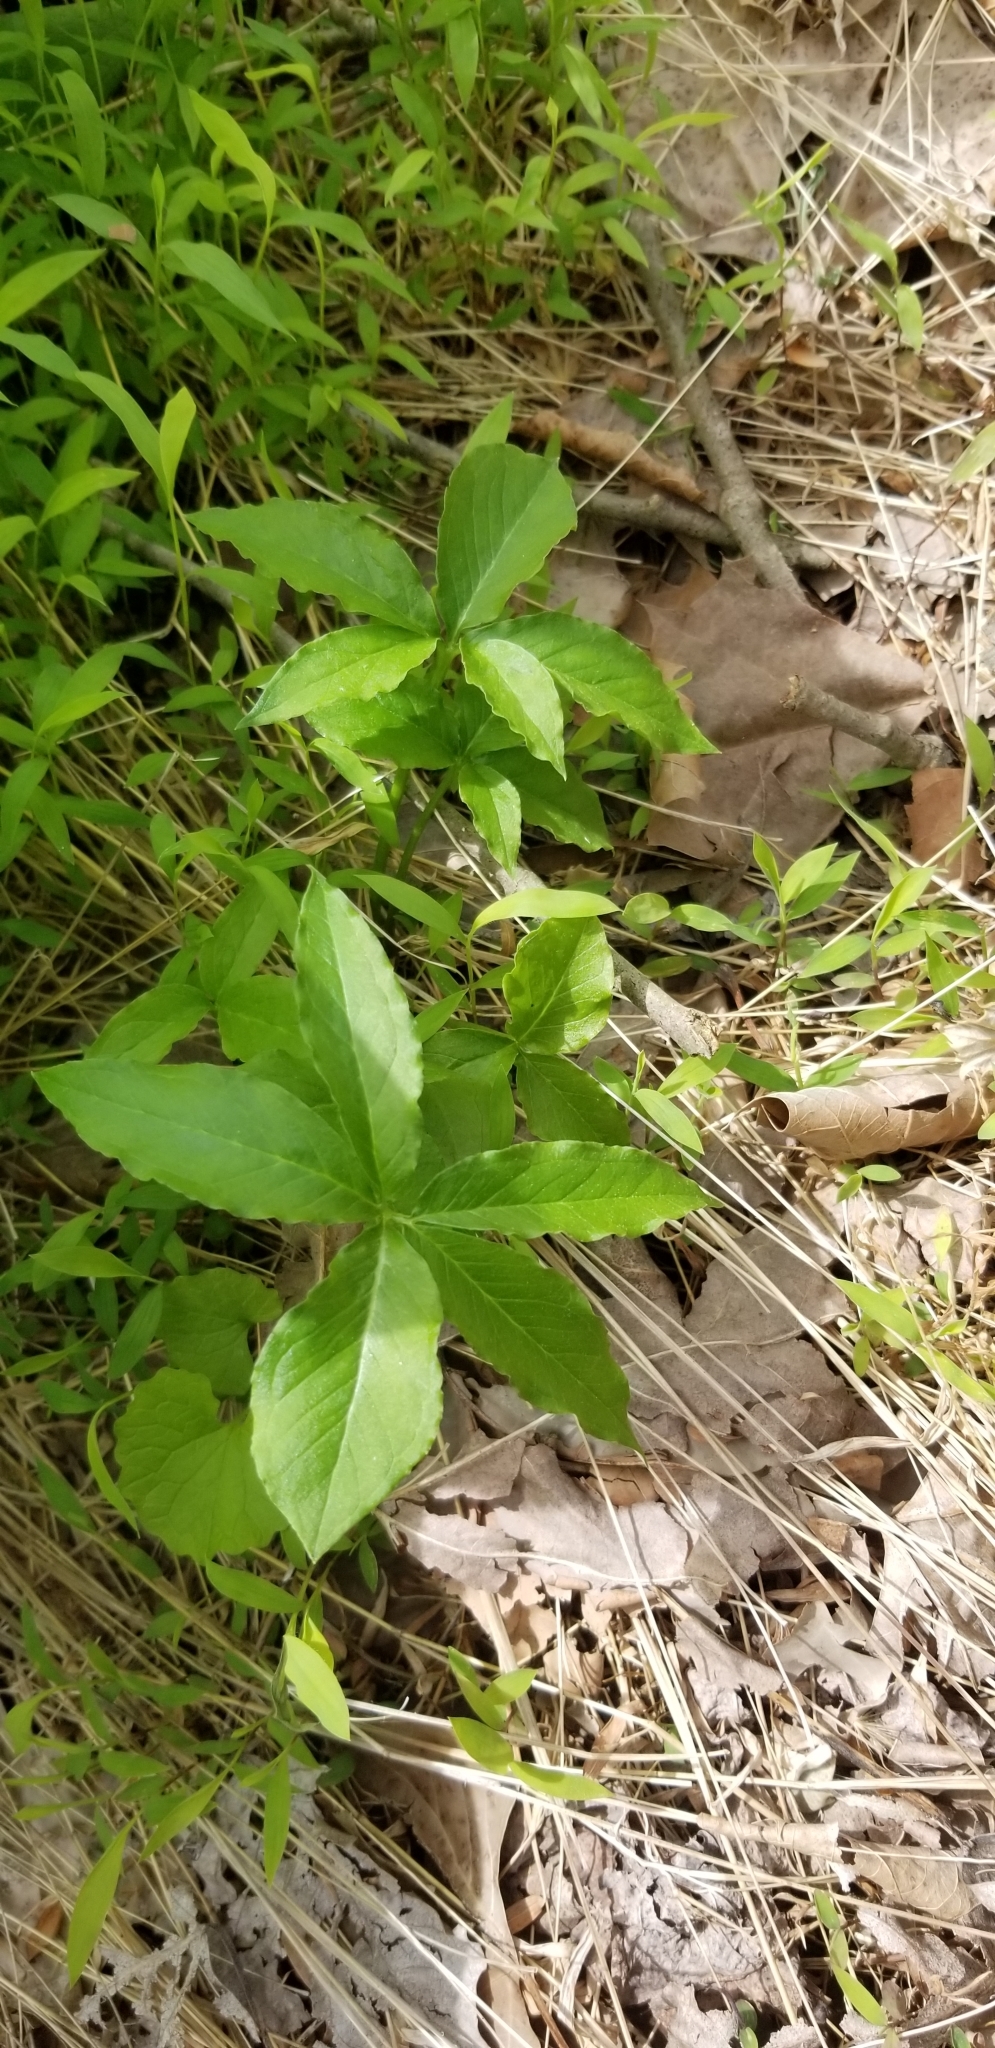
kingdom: Plantae
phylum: Tracheophyta
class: Liliopsida
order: Alismatales
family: Araceae
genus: Arisaema
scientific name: Arisaema dracontium
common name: Dragon-arum
